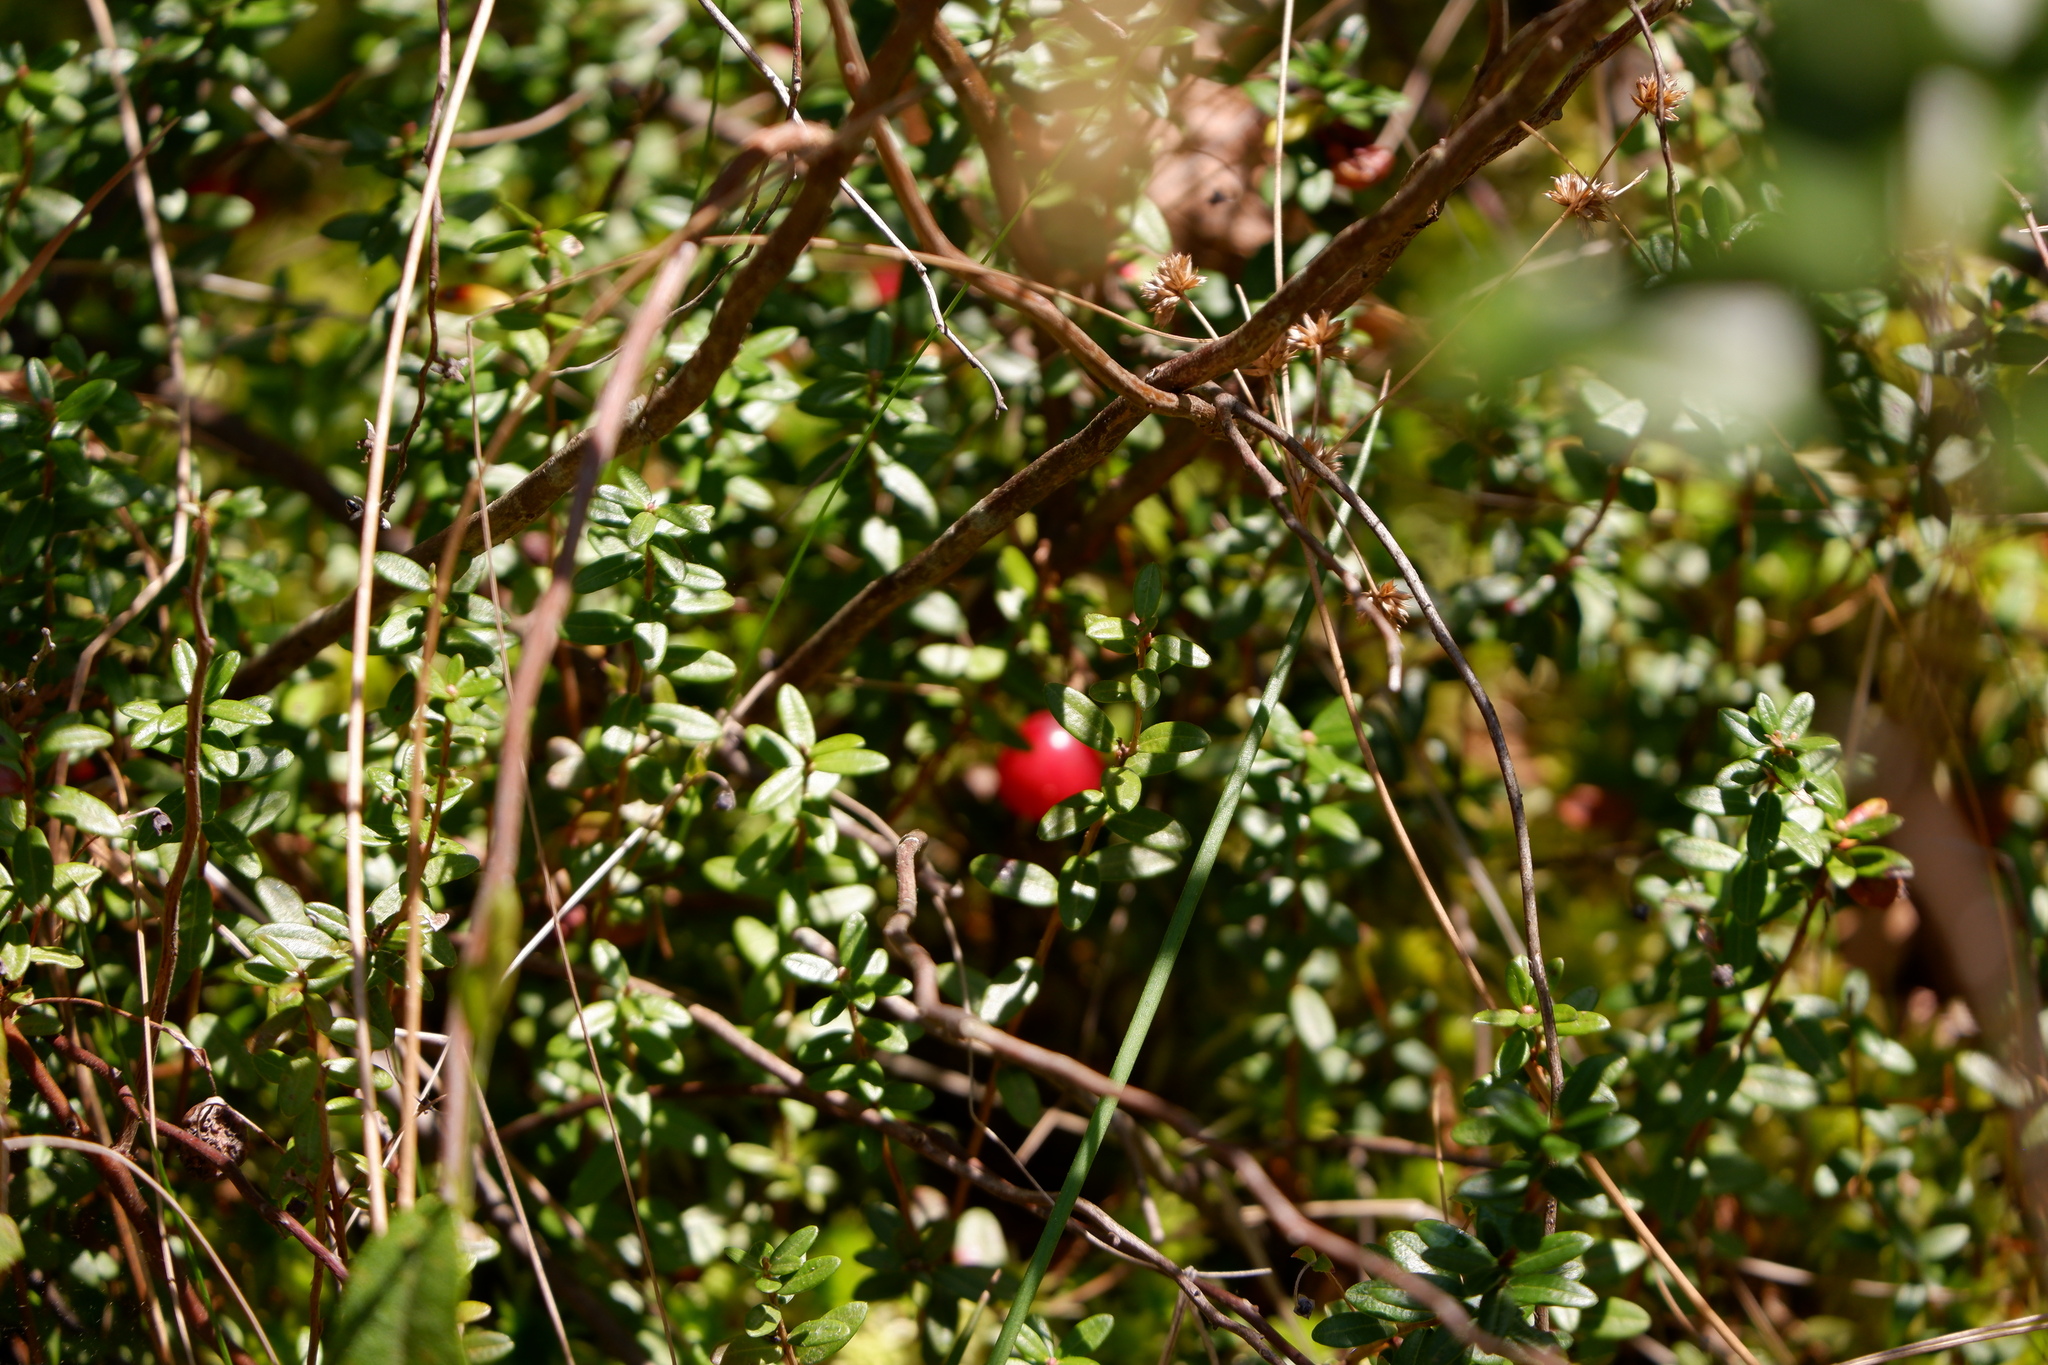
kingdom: Plantae
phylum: Tracheophyta
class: Magnoliopsida
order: Ericales
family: Ericaceae
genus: Vaccinium
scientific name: Vaccinium macrocarpon
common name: American cranberry
